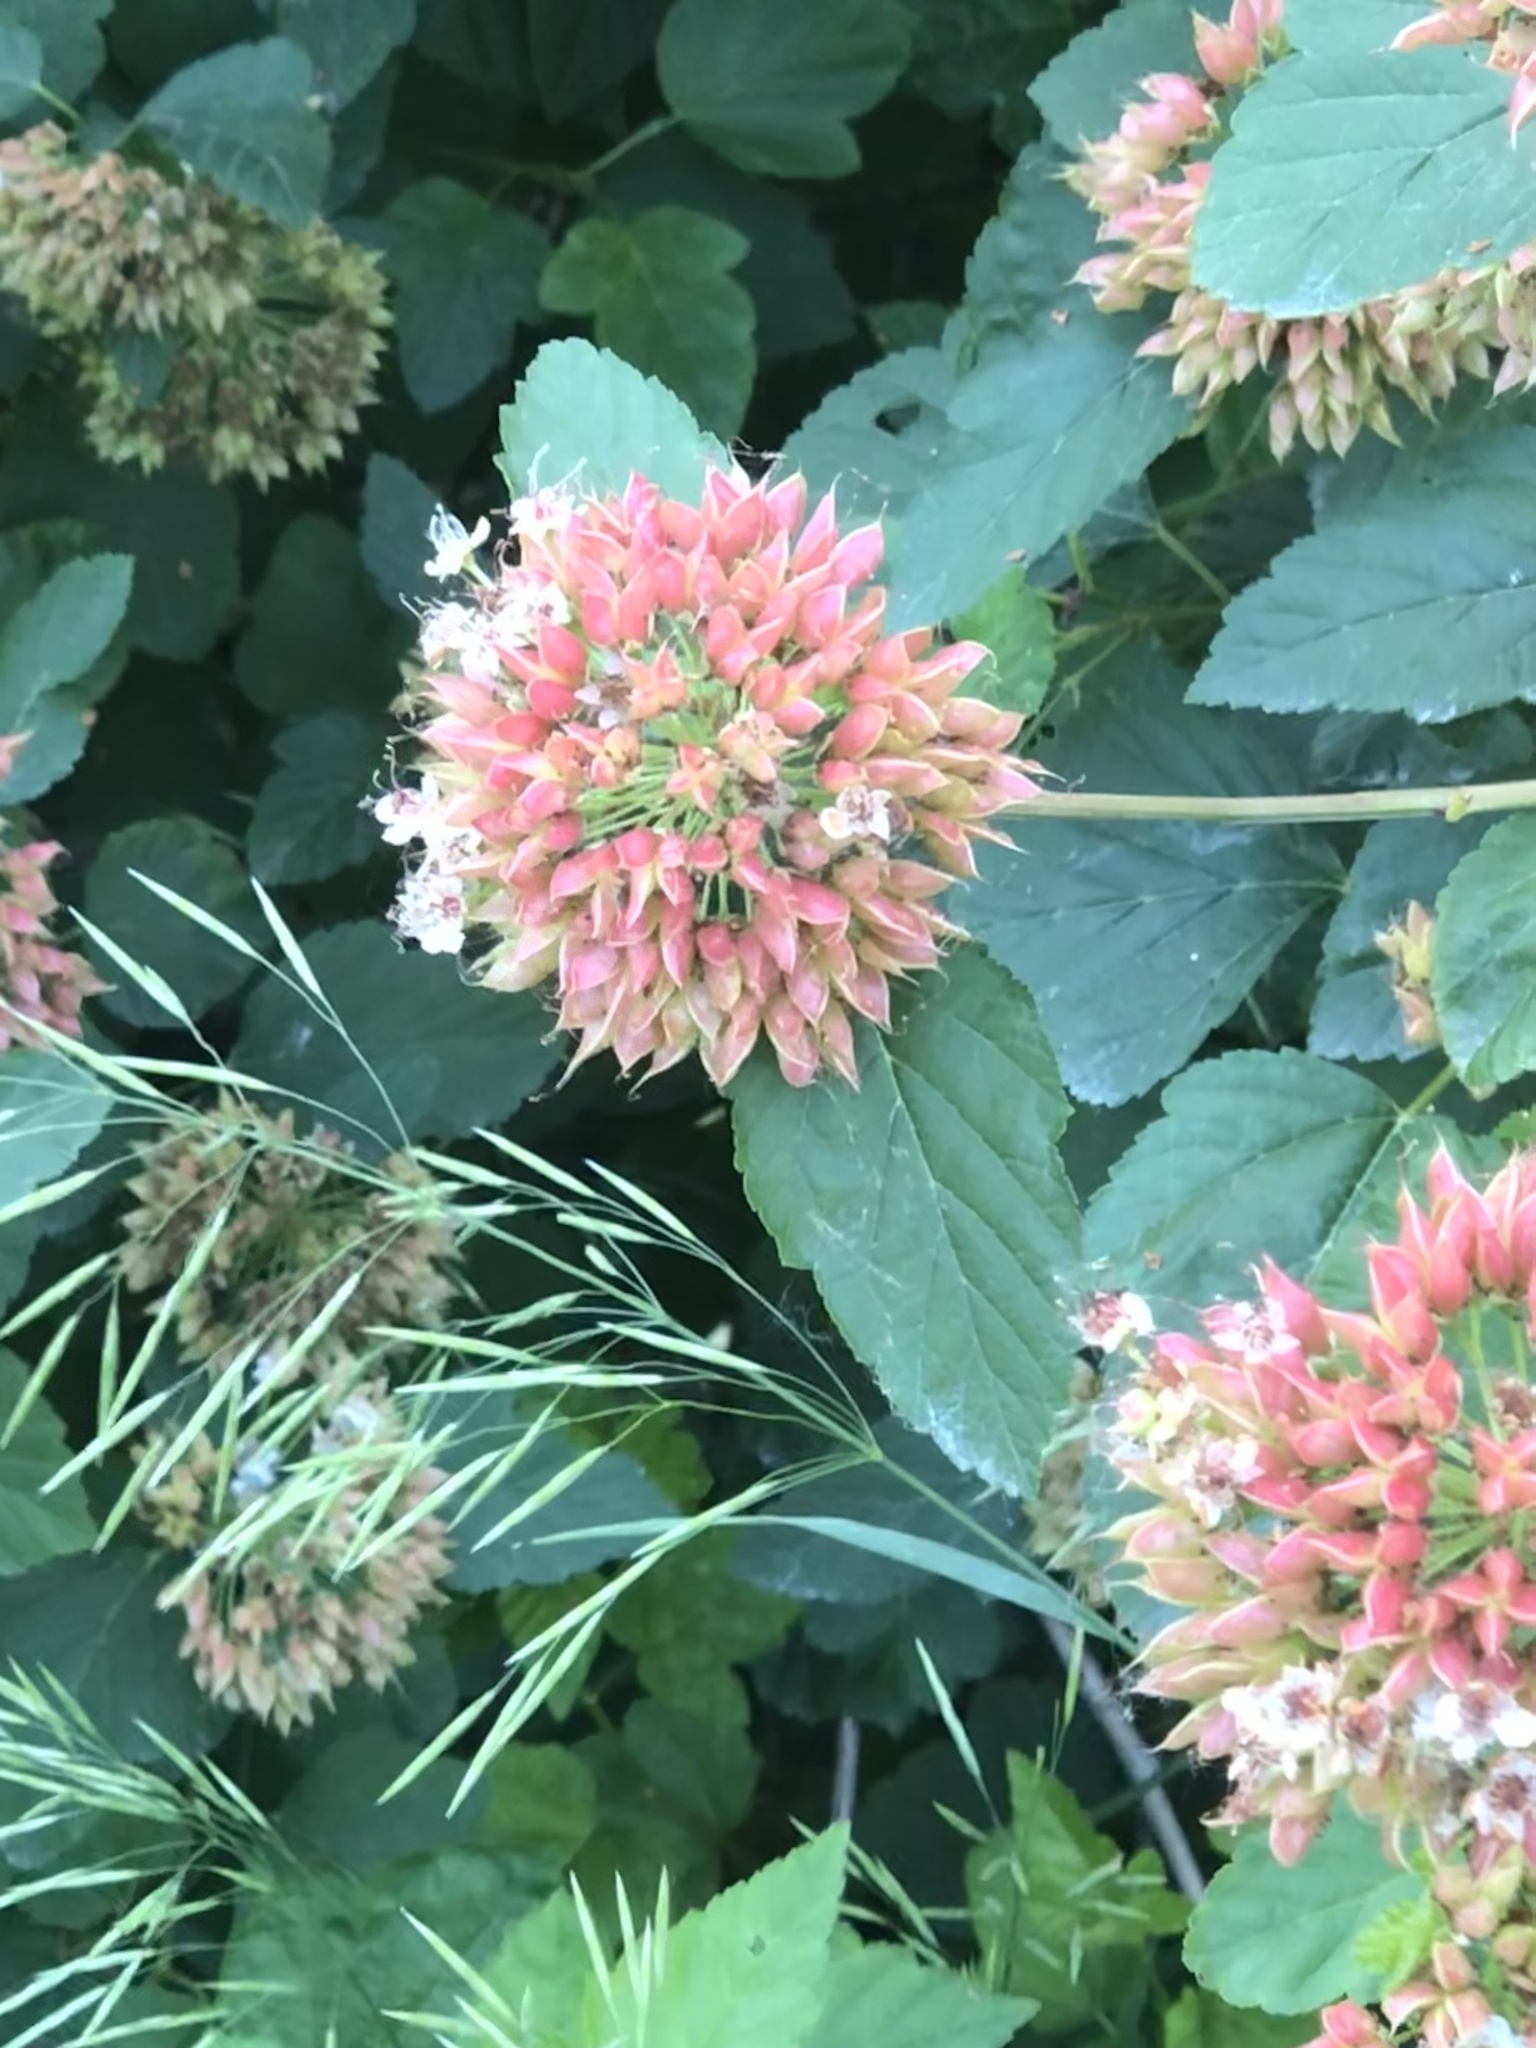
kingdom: Plantae
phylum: Tracheophyta
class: Magnoliopsida
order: Rosales
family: Rosaceae
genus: Physocarpus
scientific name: Physocarpus opulifolius
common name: Ninebark
